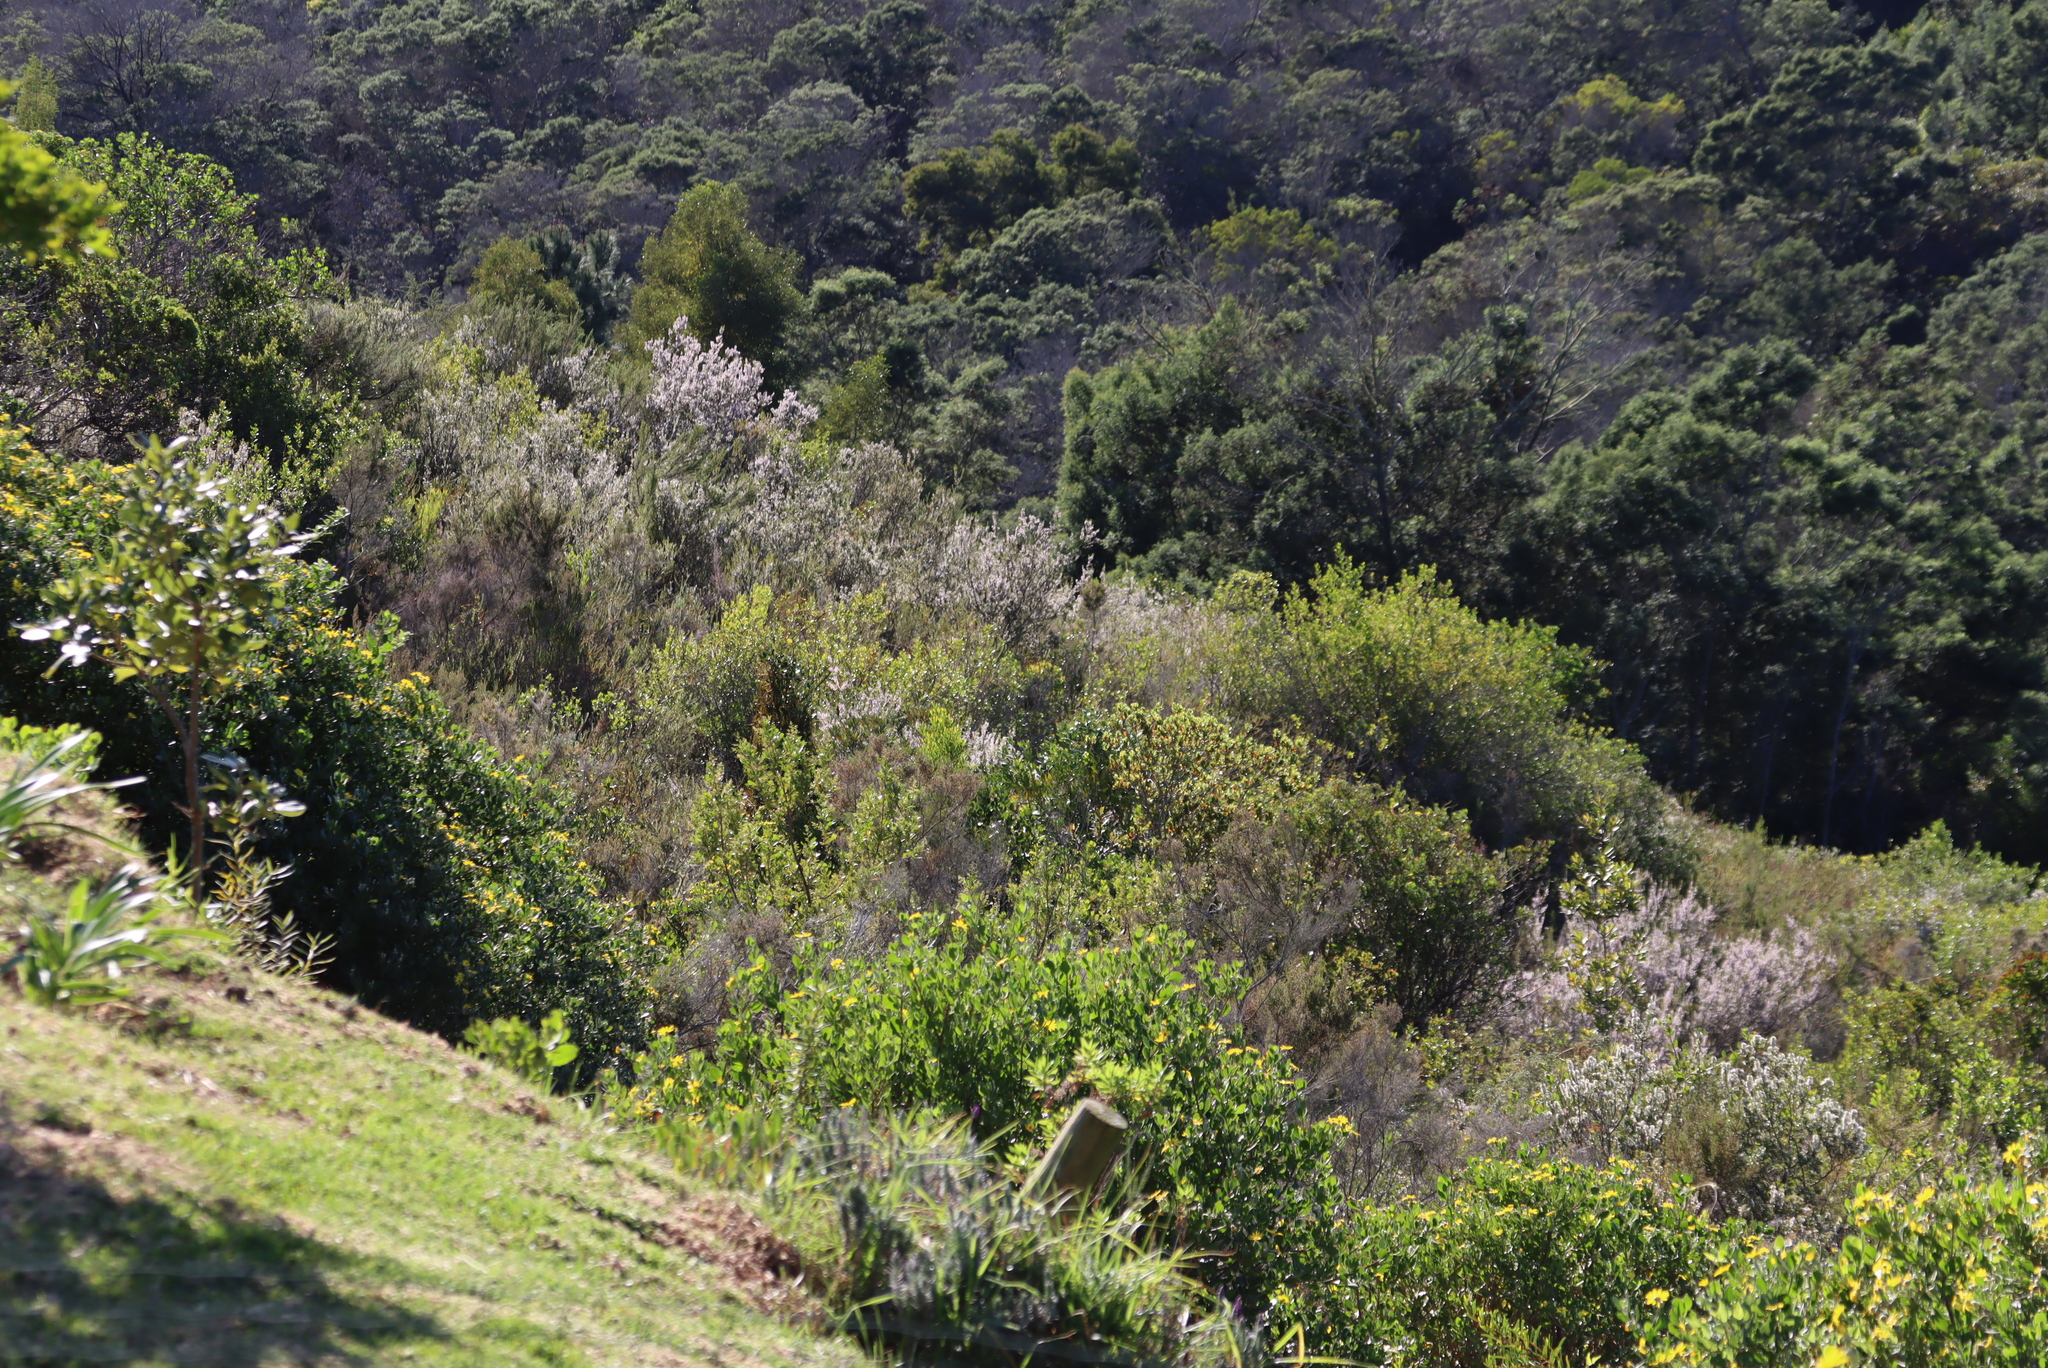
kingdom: Plantae
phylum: Tracheophyta
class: Magnoliopsida
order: Ericales
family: Ericaceae
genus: Erica
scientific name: Erica scabriuscula
